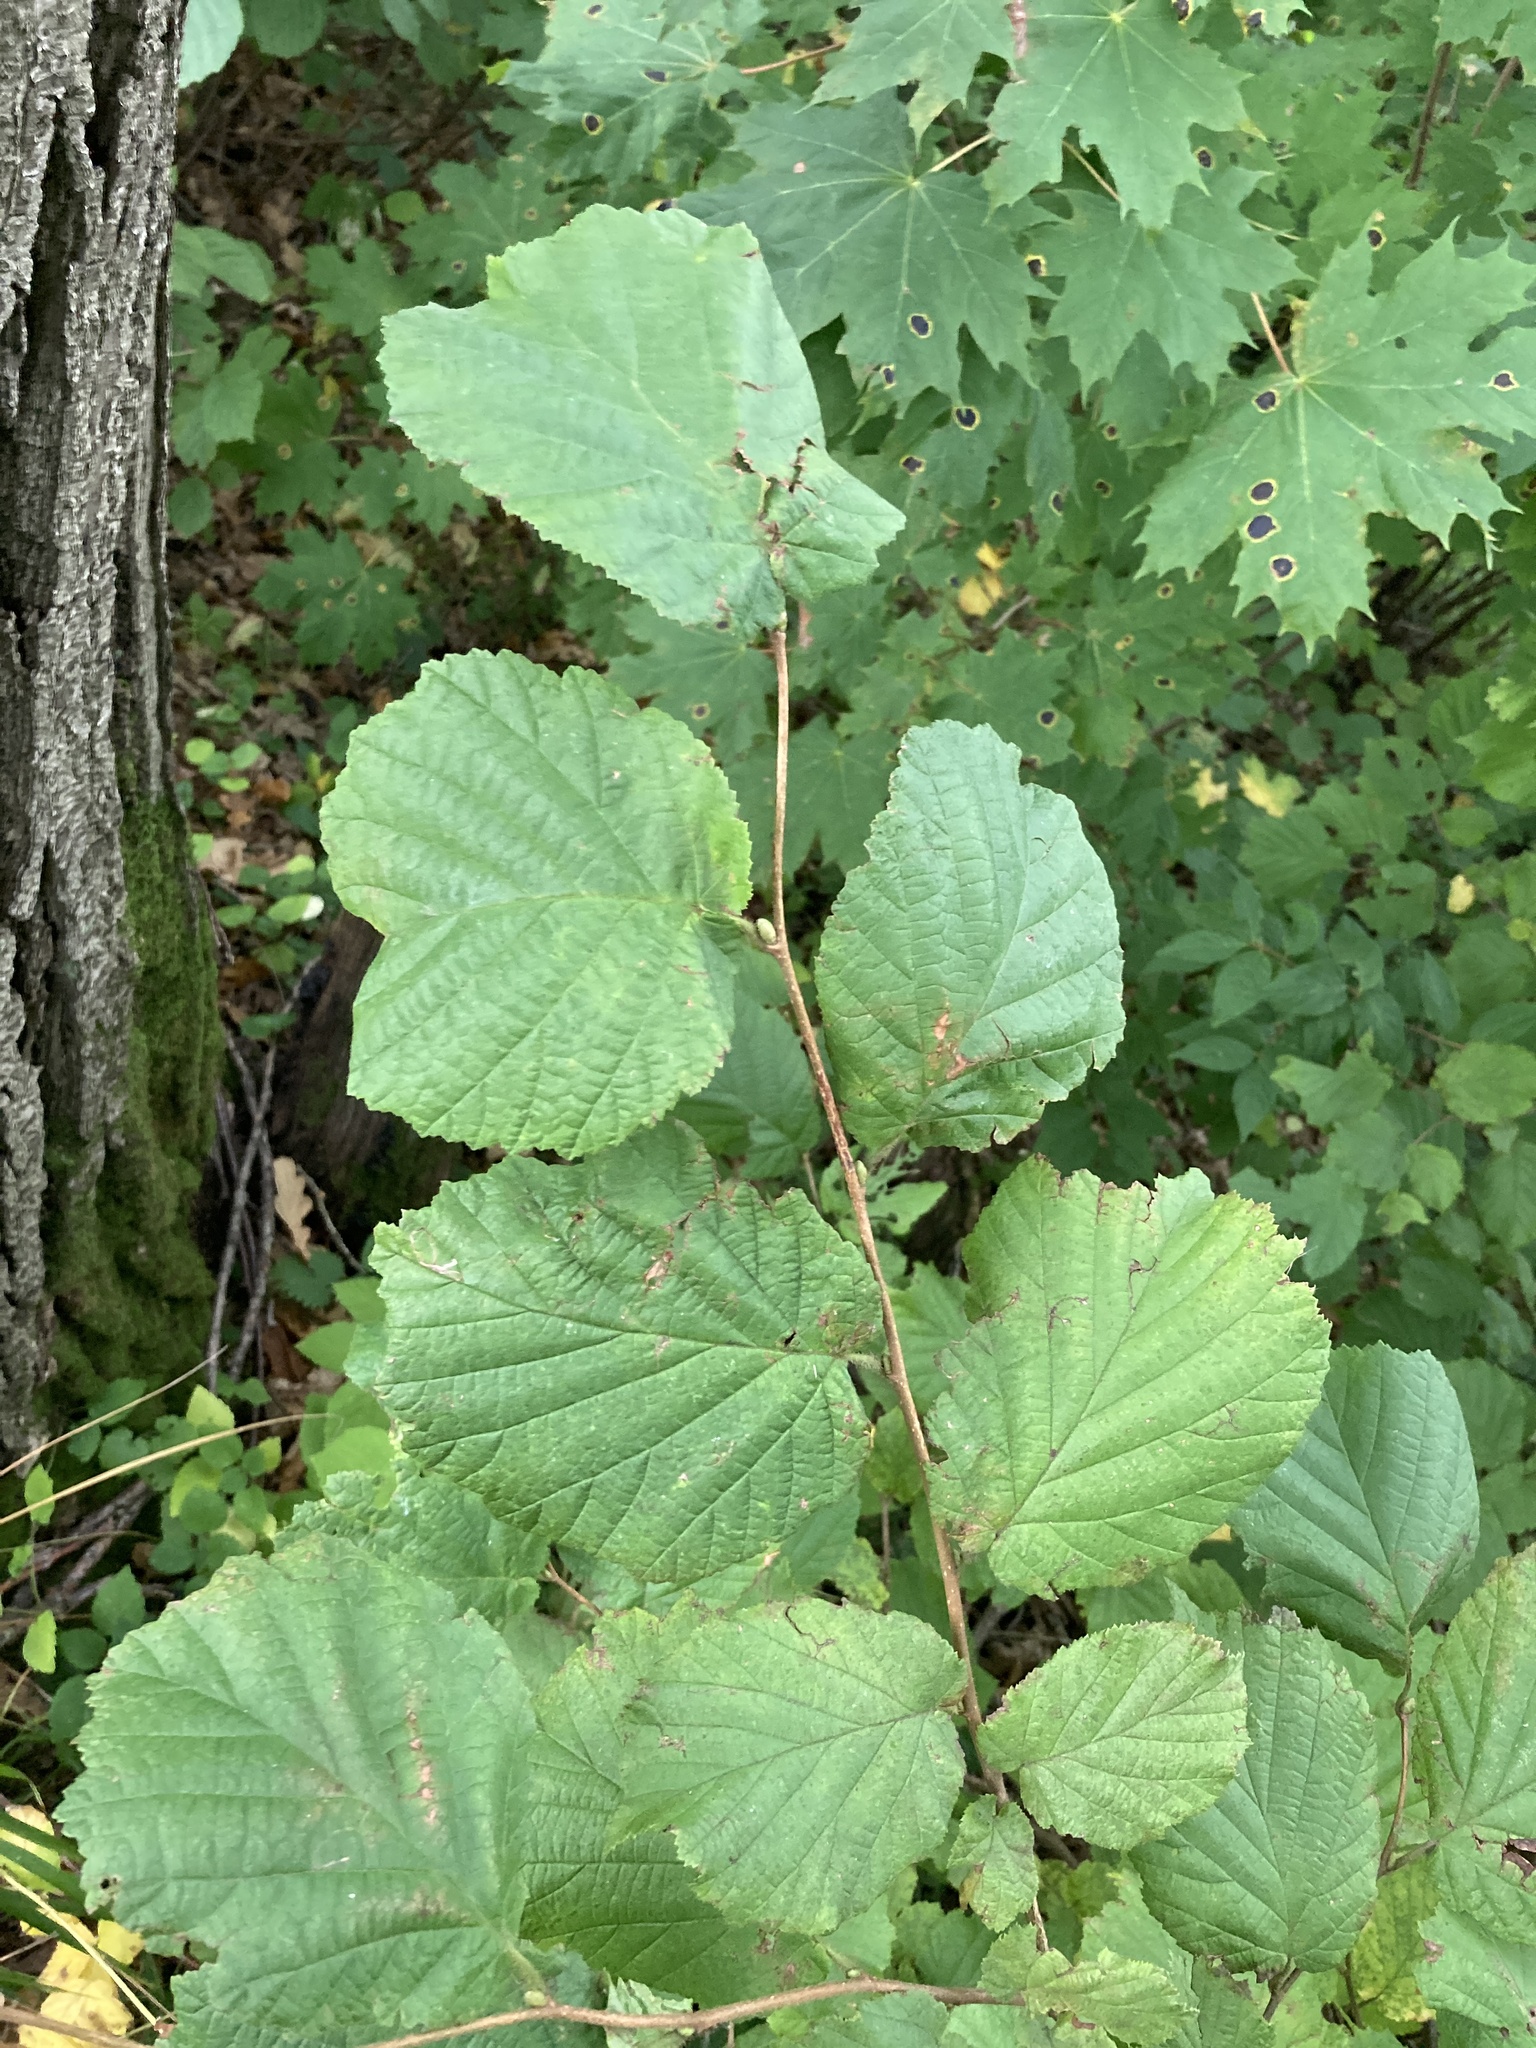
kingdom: Plantae
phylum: Tracheophyta
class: Magnoliopsida
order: Fagales
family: Betulaceae
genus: Corylus
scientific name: Corylus avellana
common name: European hazel
